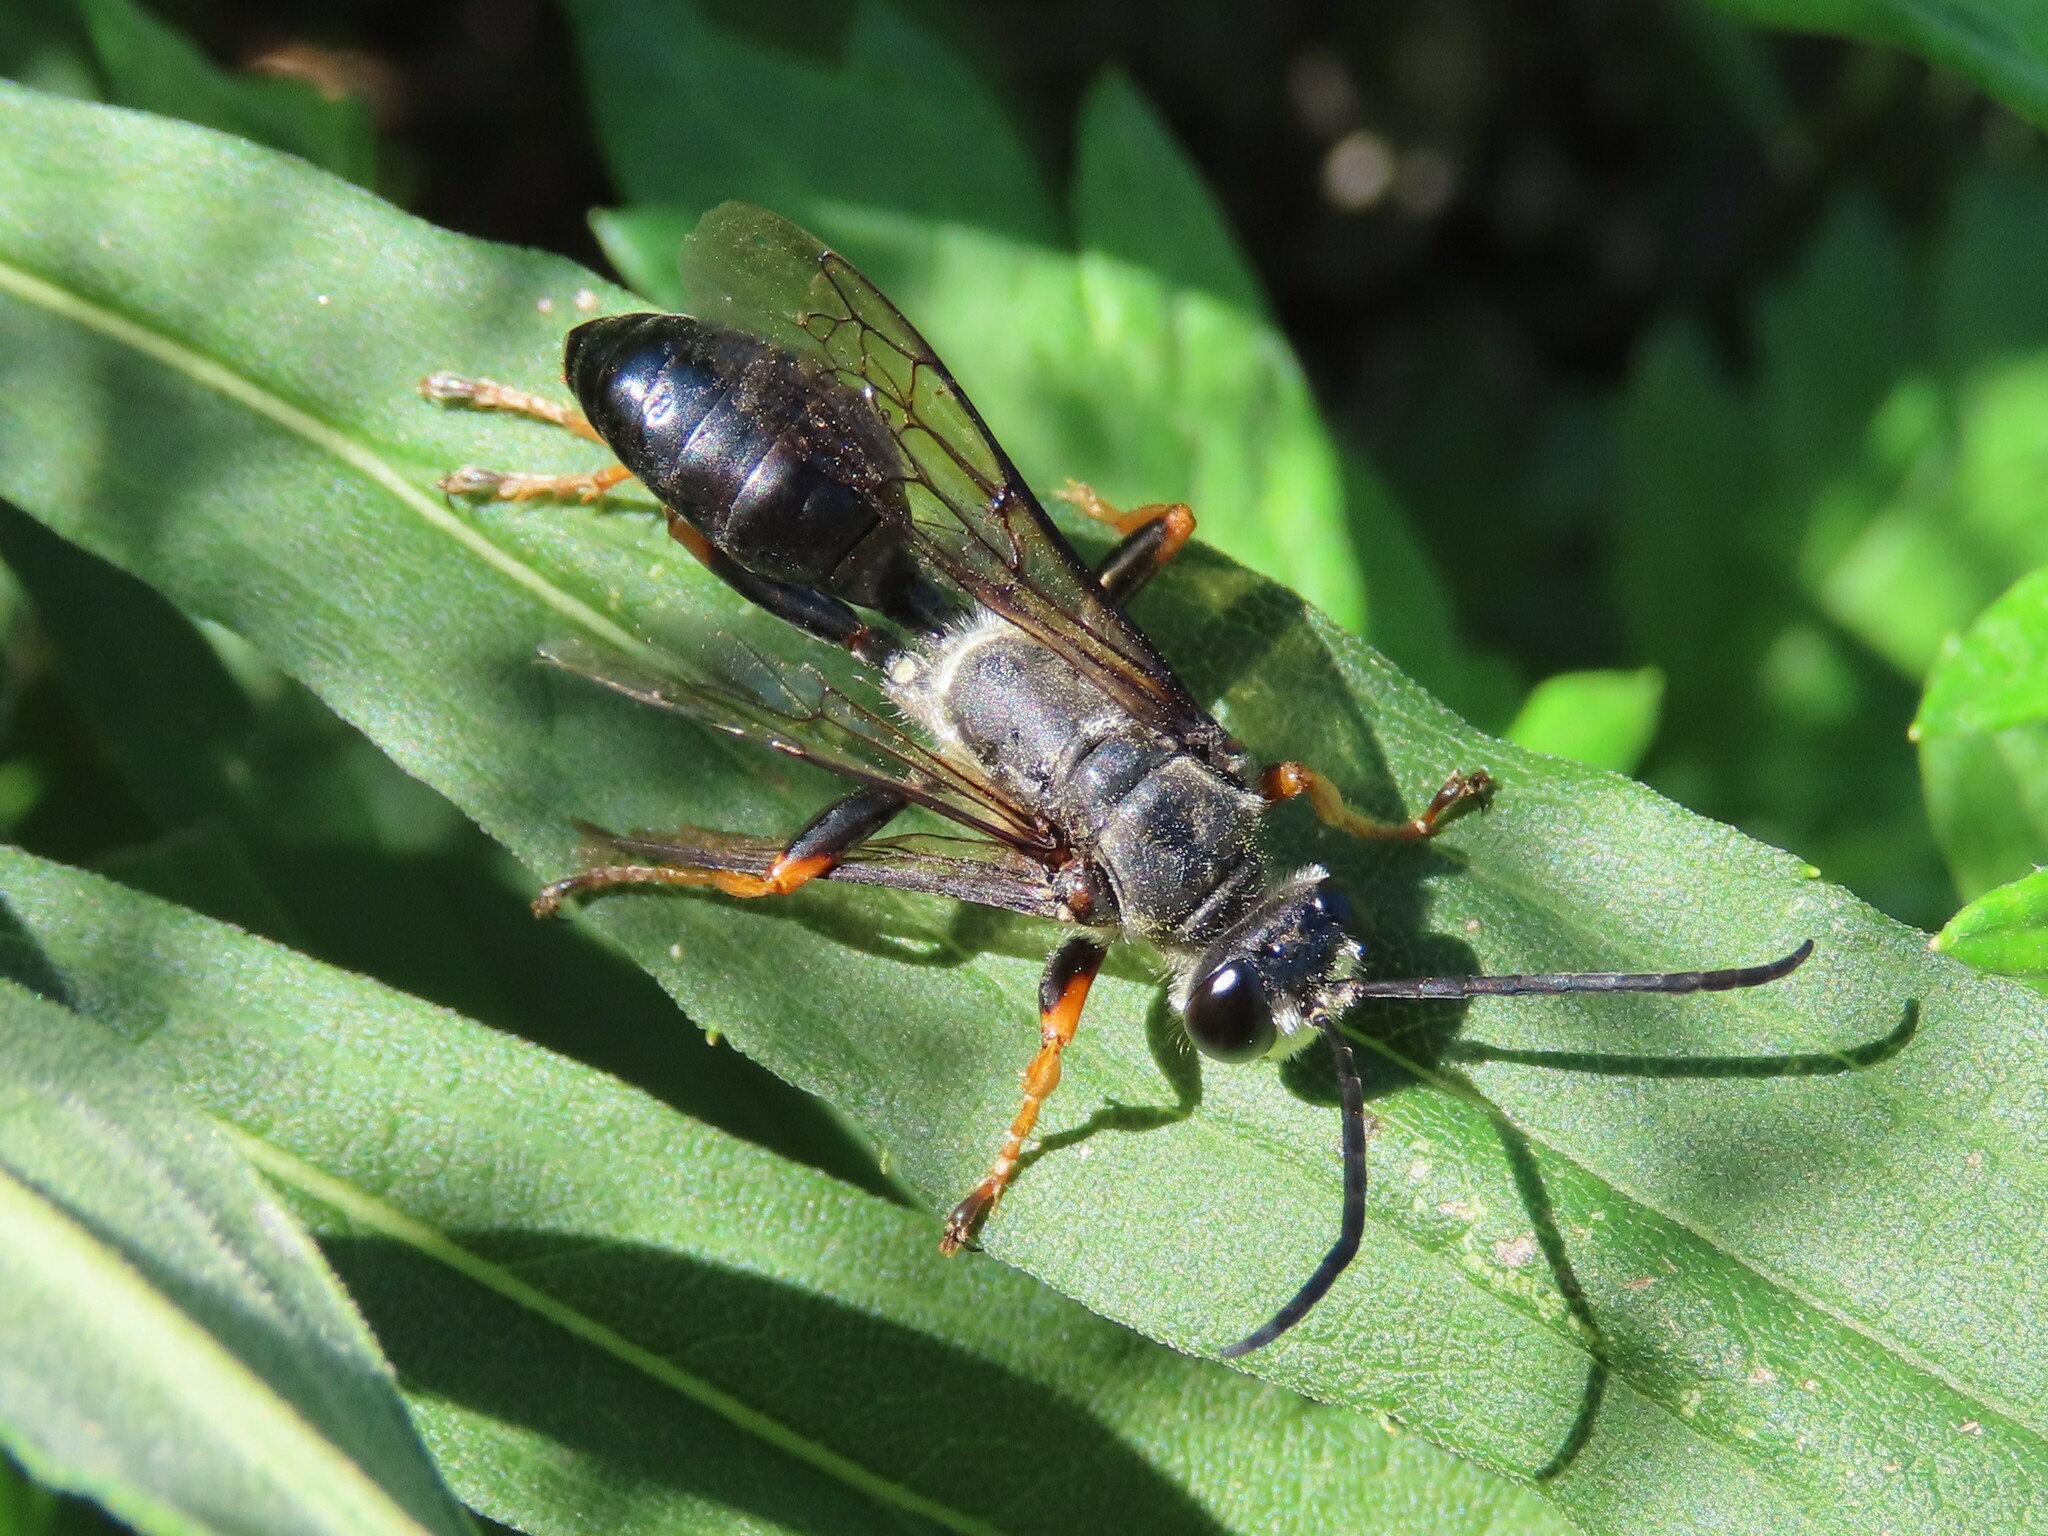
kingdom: Animalia
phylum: Arthropoda
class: Insecta
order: Hymenoptera
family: Sphecidae
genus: Sphex
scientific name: Sphex nudus
